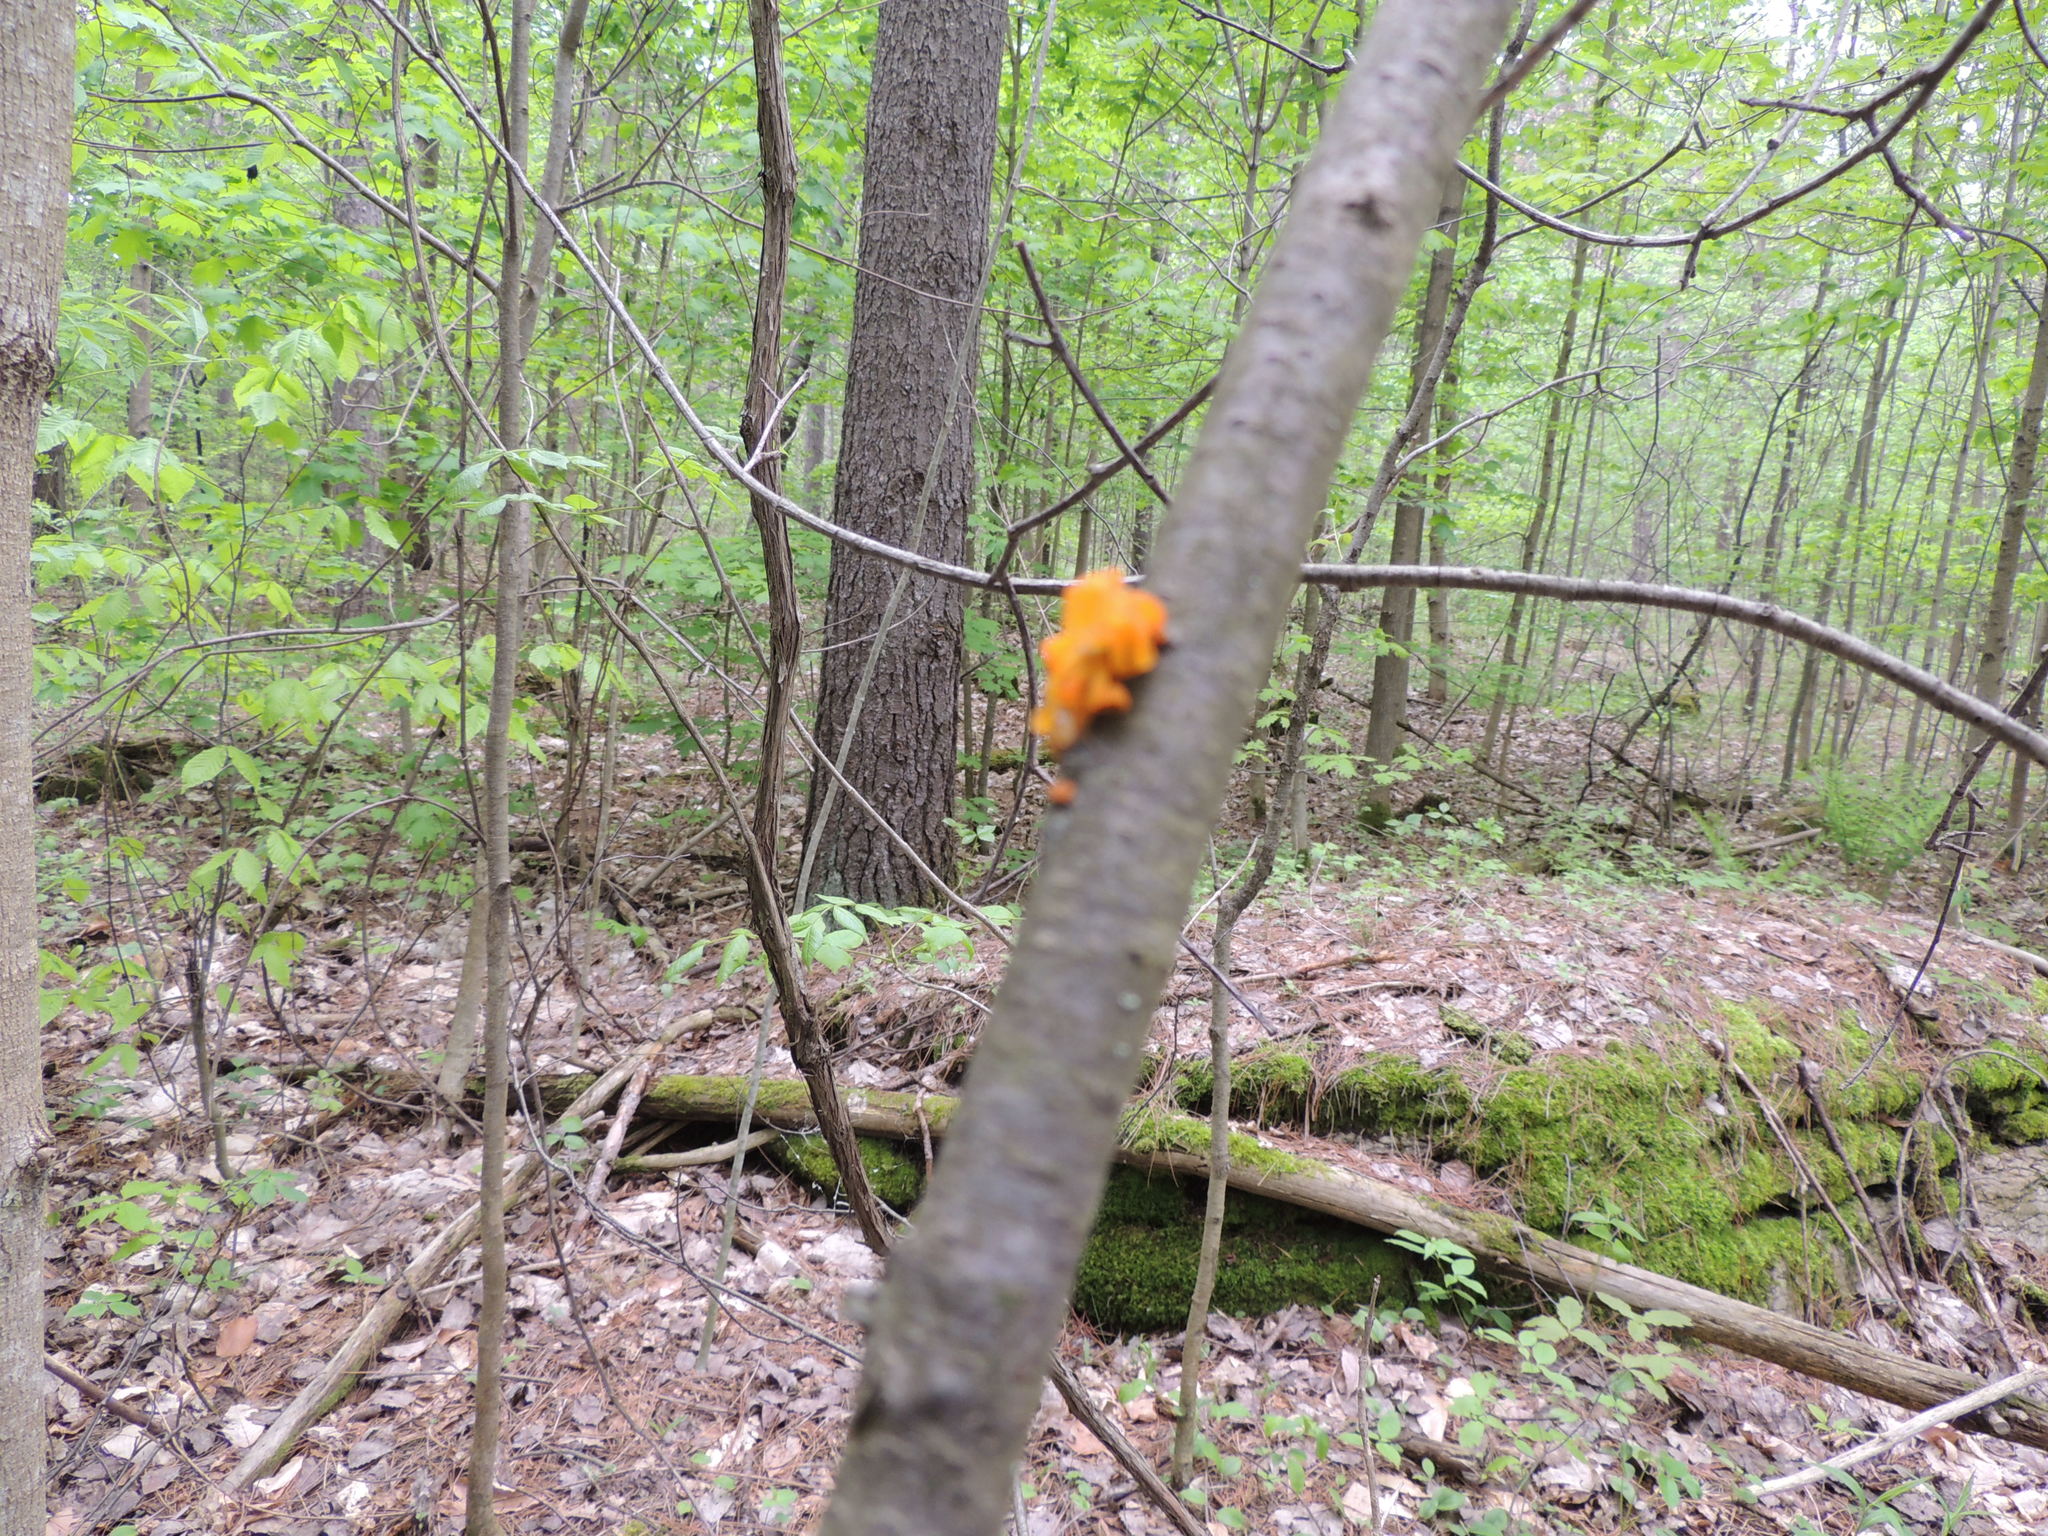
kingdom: Fungi
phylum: Basidiomycota
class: Tremellomycetes
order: Tremellales
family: Tremellaceae
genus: Tremella
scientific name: Tremella mesenterica
